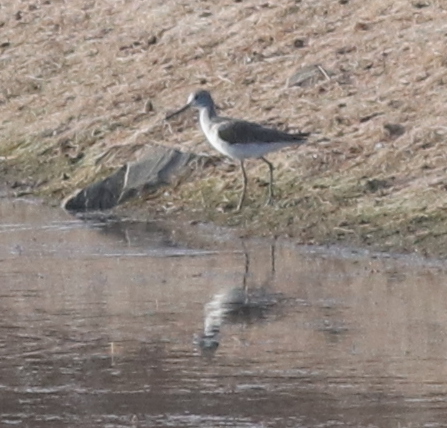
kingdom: Animalia
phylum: Chordata
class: Aves
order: Charadriiformes
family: Scolopacidae
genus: Tringa
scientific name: Tringa nebularia
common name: Common greenshank
